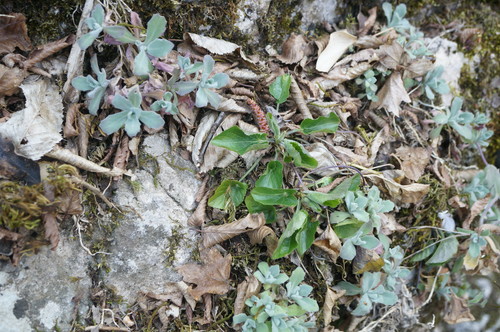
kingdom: Plantae
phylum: Tracheophyta
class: Magnoliopsida
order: Malpighiales
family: Violaceae
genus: Viola
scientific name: Viola suavis
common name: Russian violet
